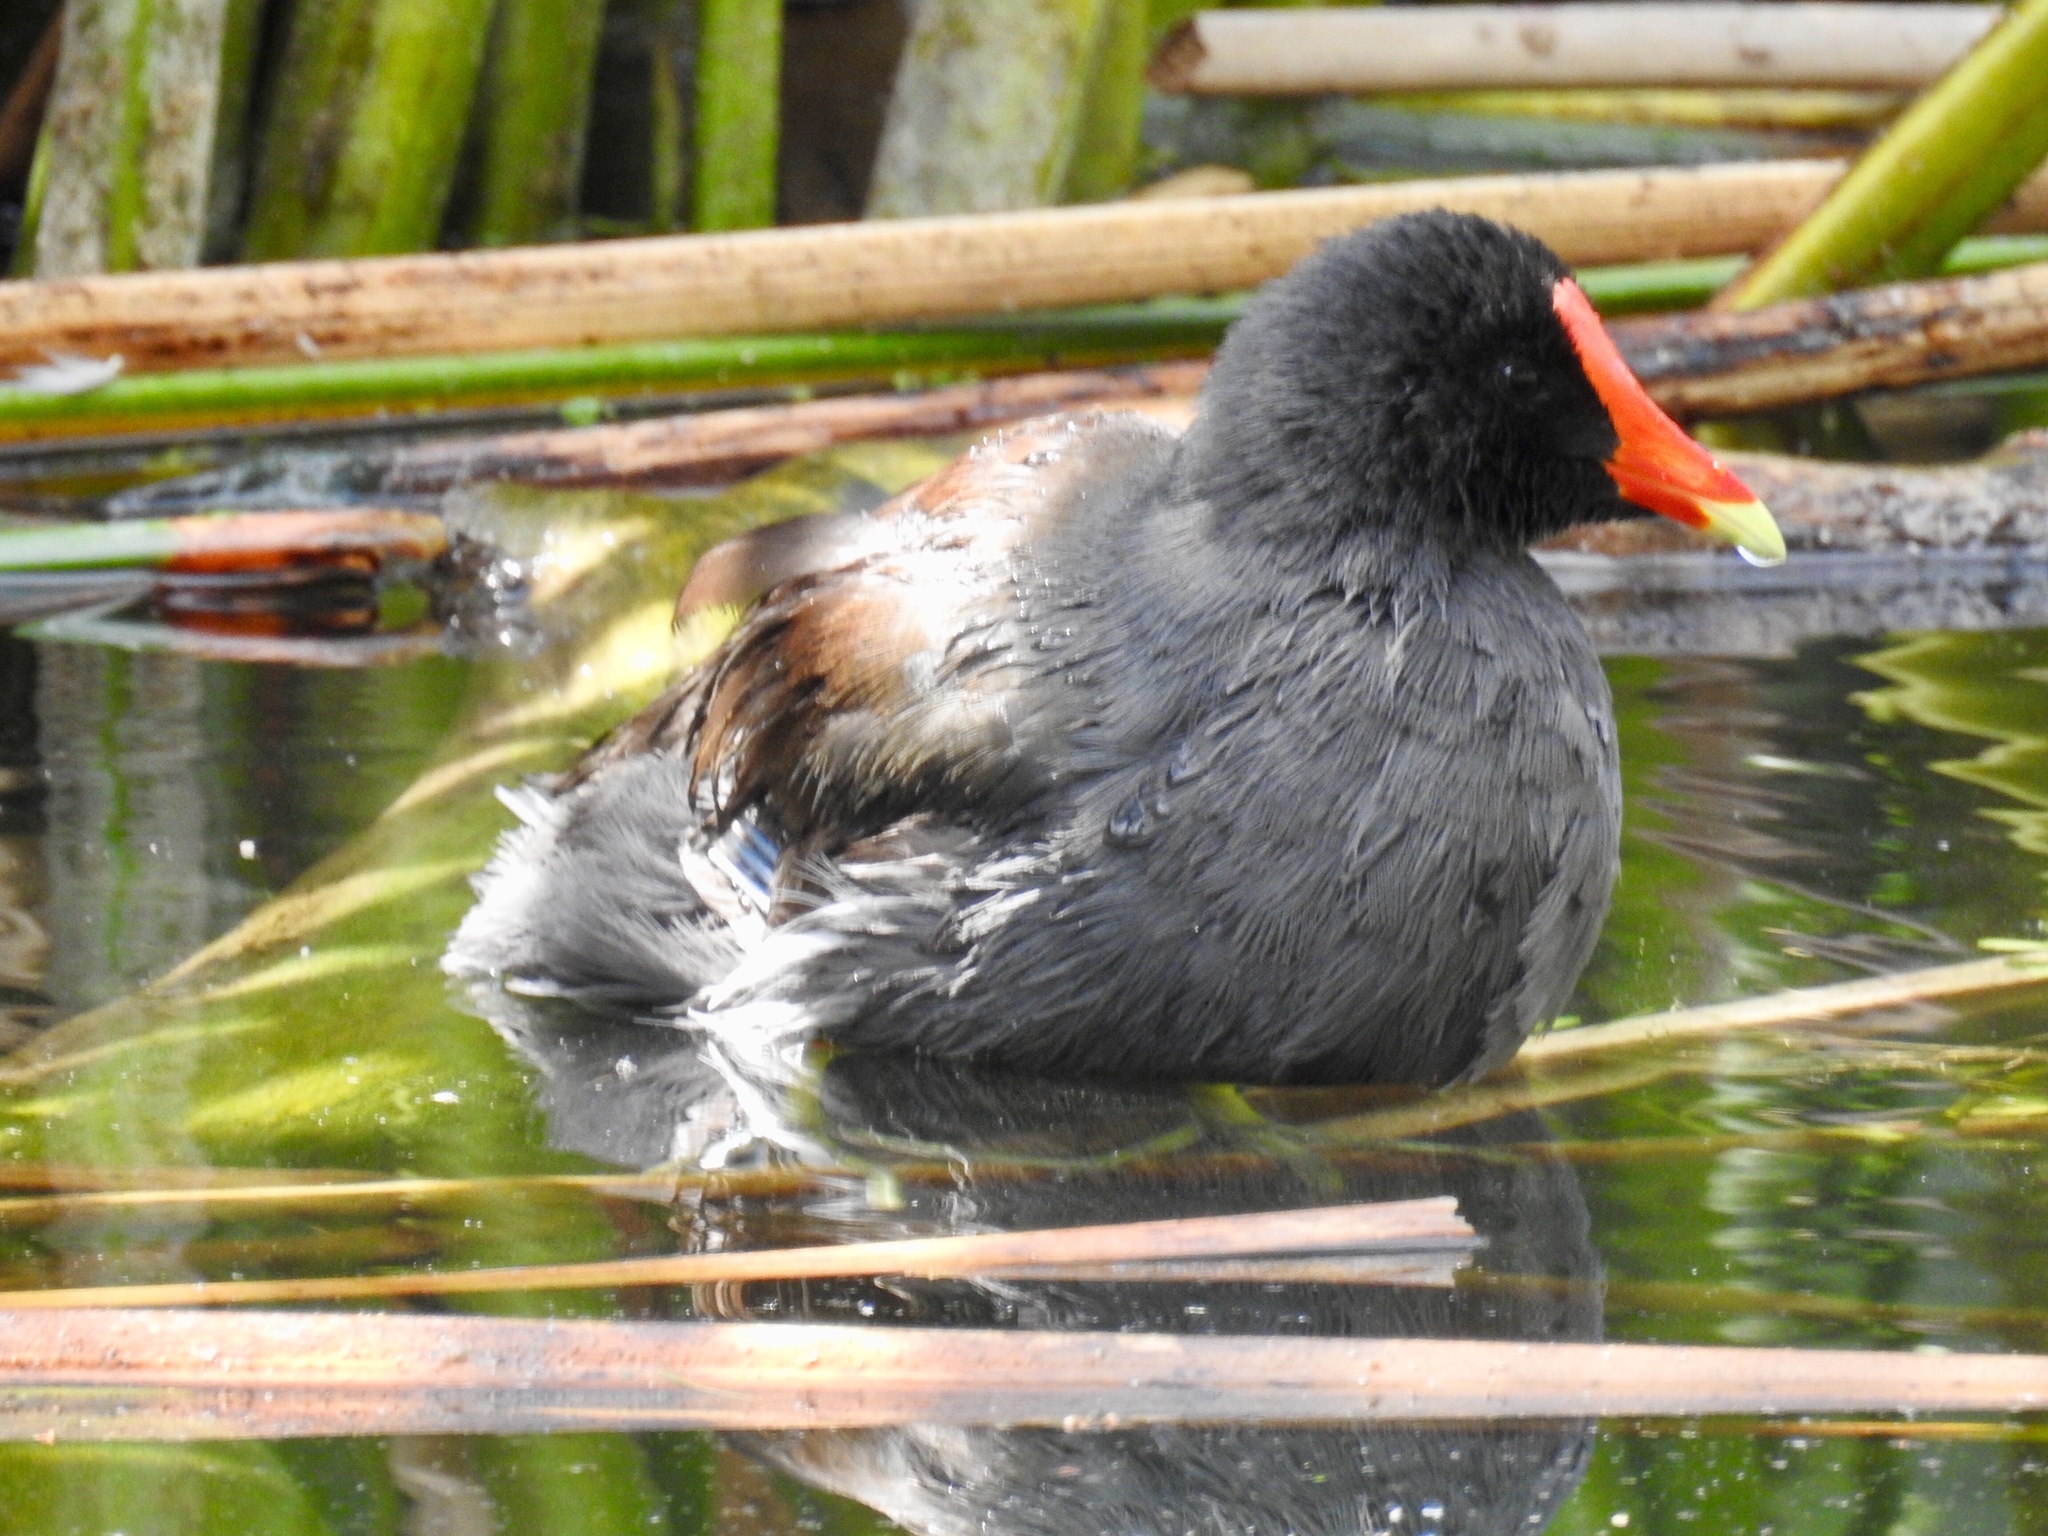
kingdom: Animalia
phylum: Chordata
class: Aves
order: Gruiformes
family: Rallidae
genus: Gallinula
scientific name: Gallinula chloropus
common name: Common moorhen
